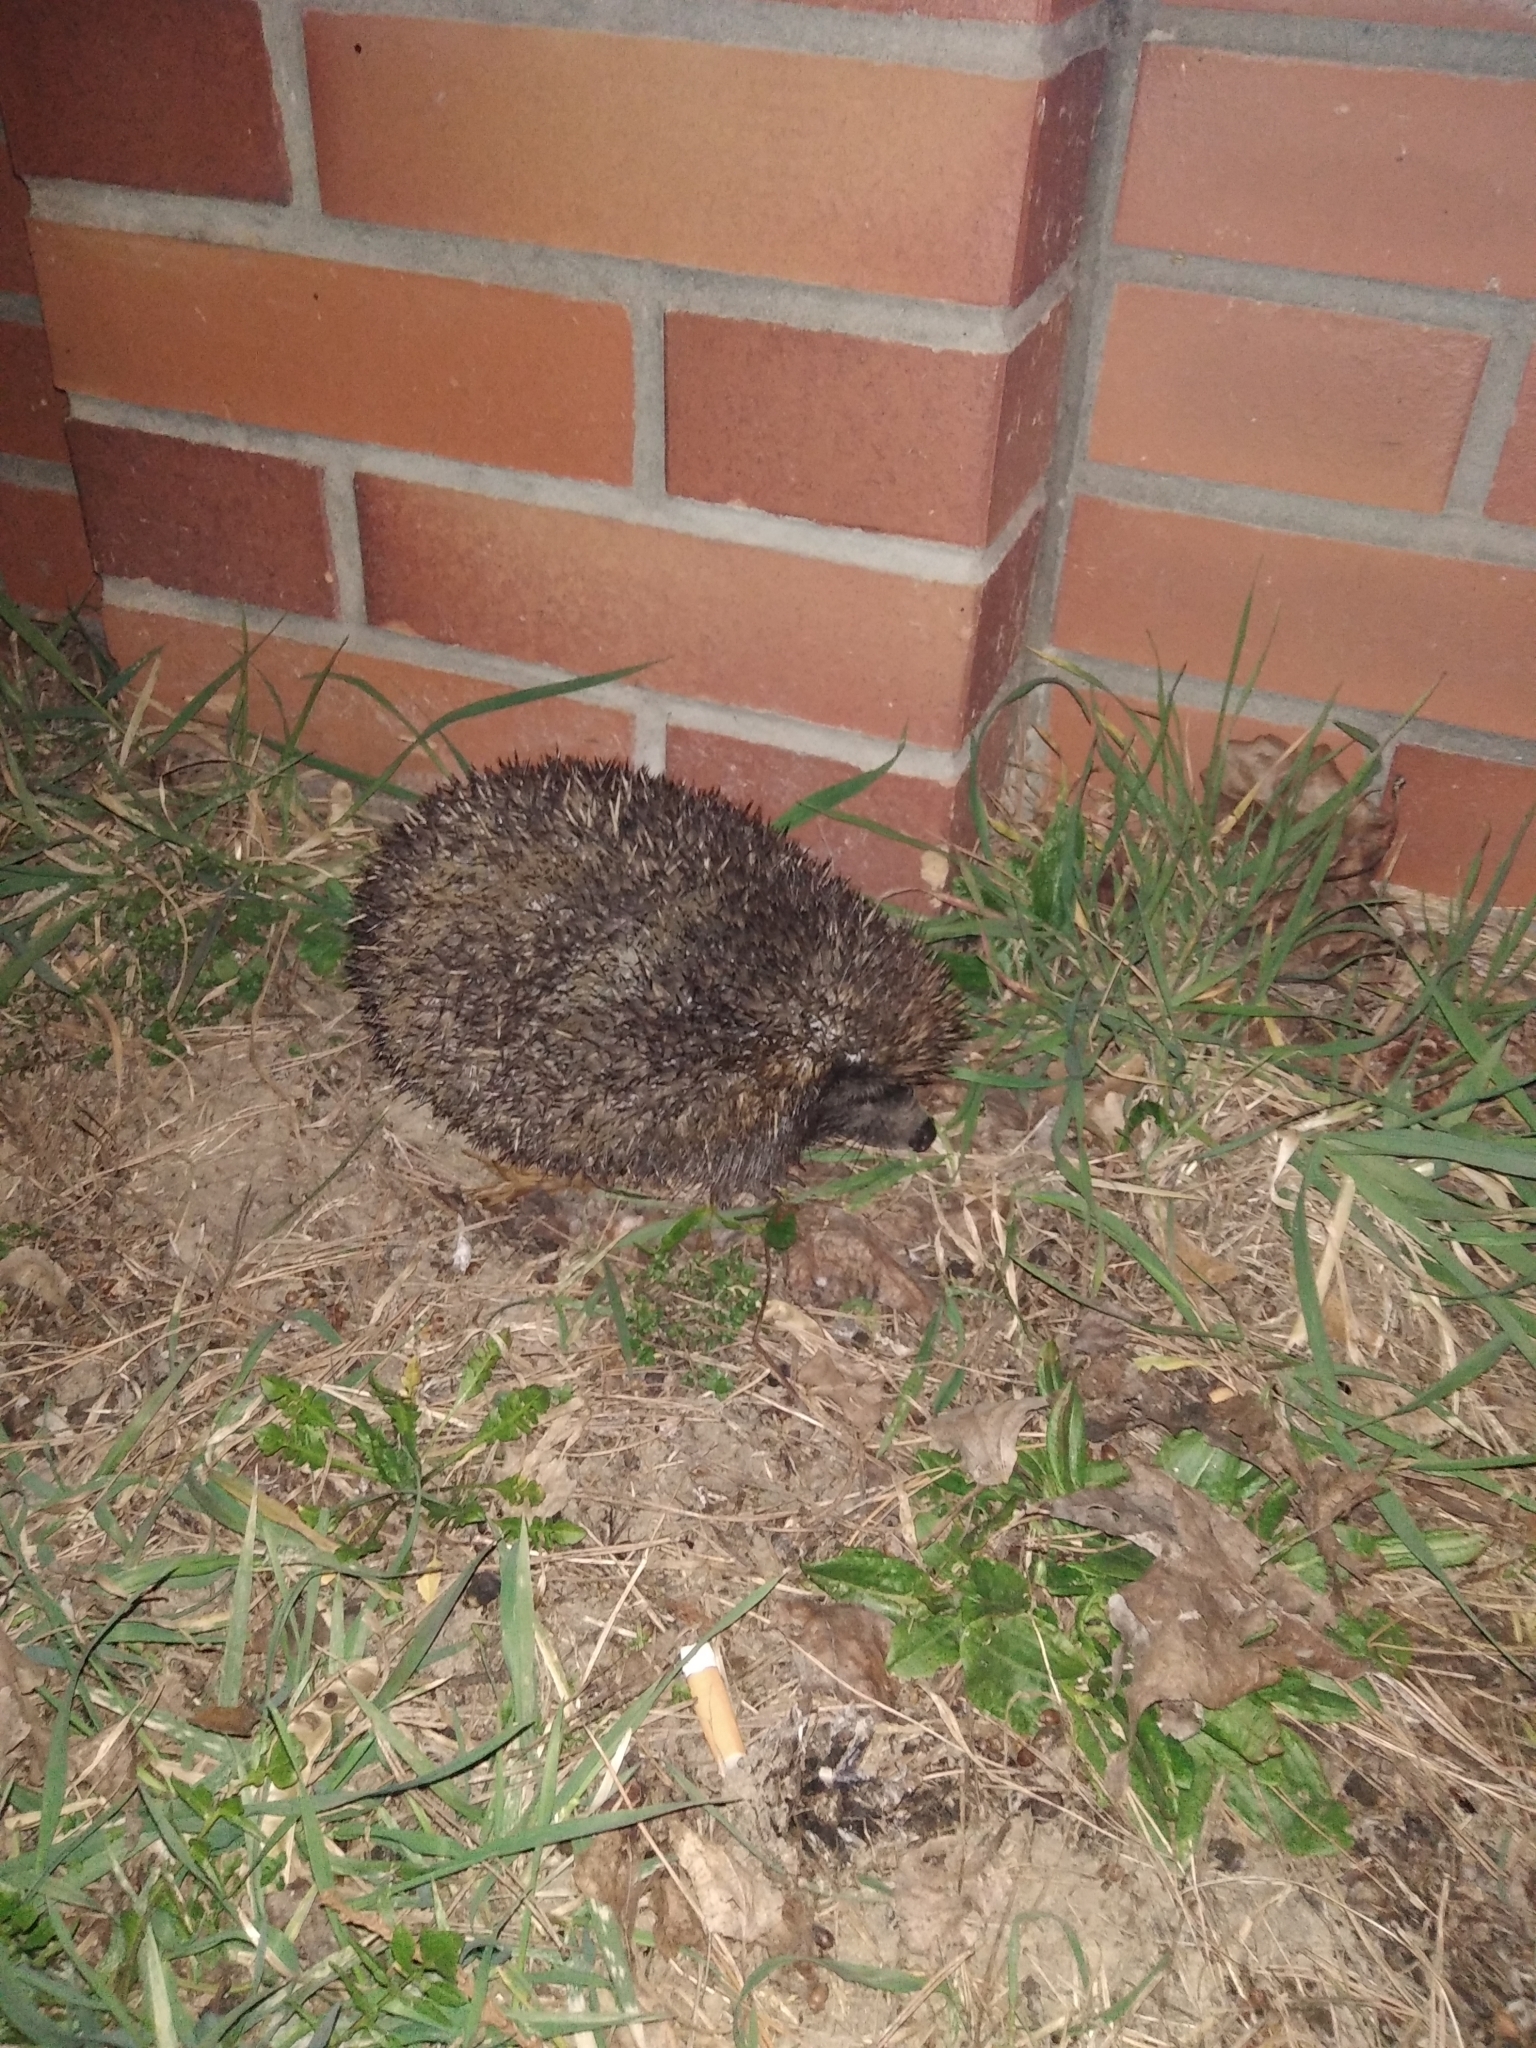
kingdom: Animalia
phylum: Chordata
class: Mammalia
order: Erinaceomorpha
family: Erinaceidae
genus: Erinaceus
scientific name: Erinaceus europaeus
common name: West european hedgehog
